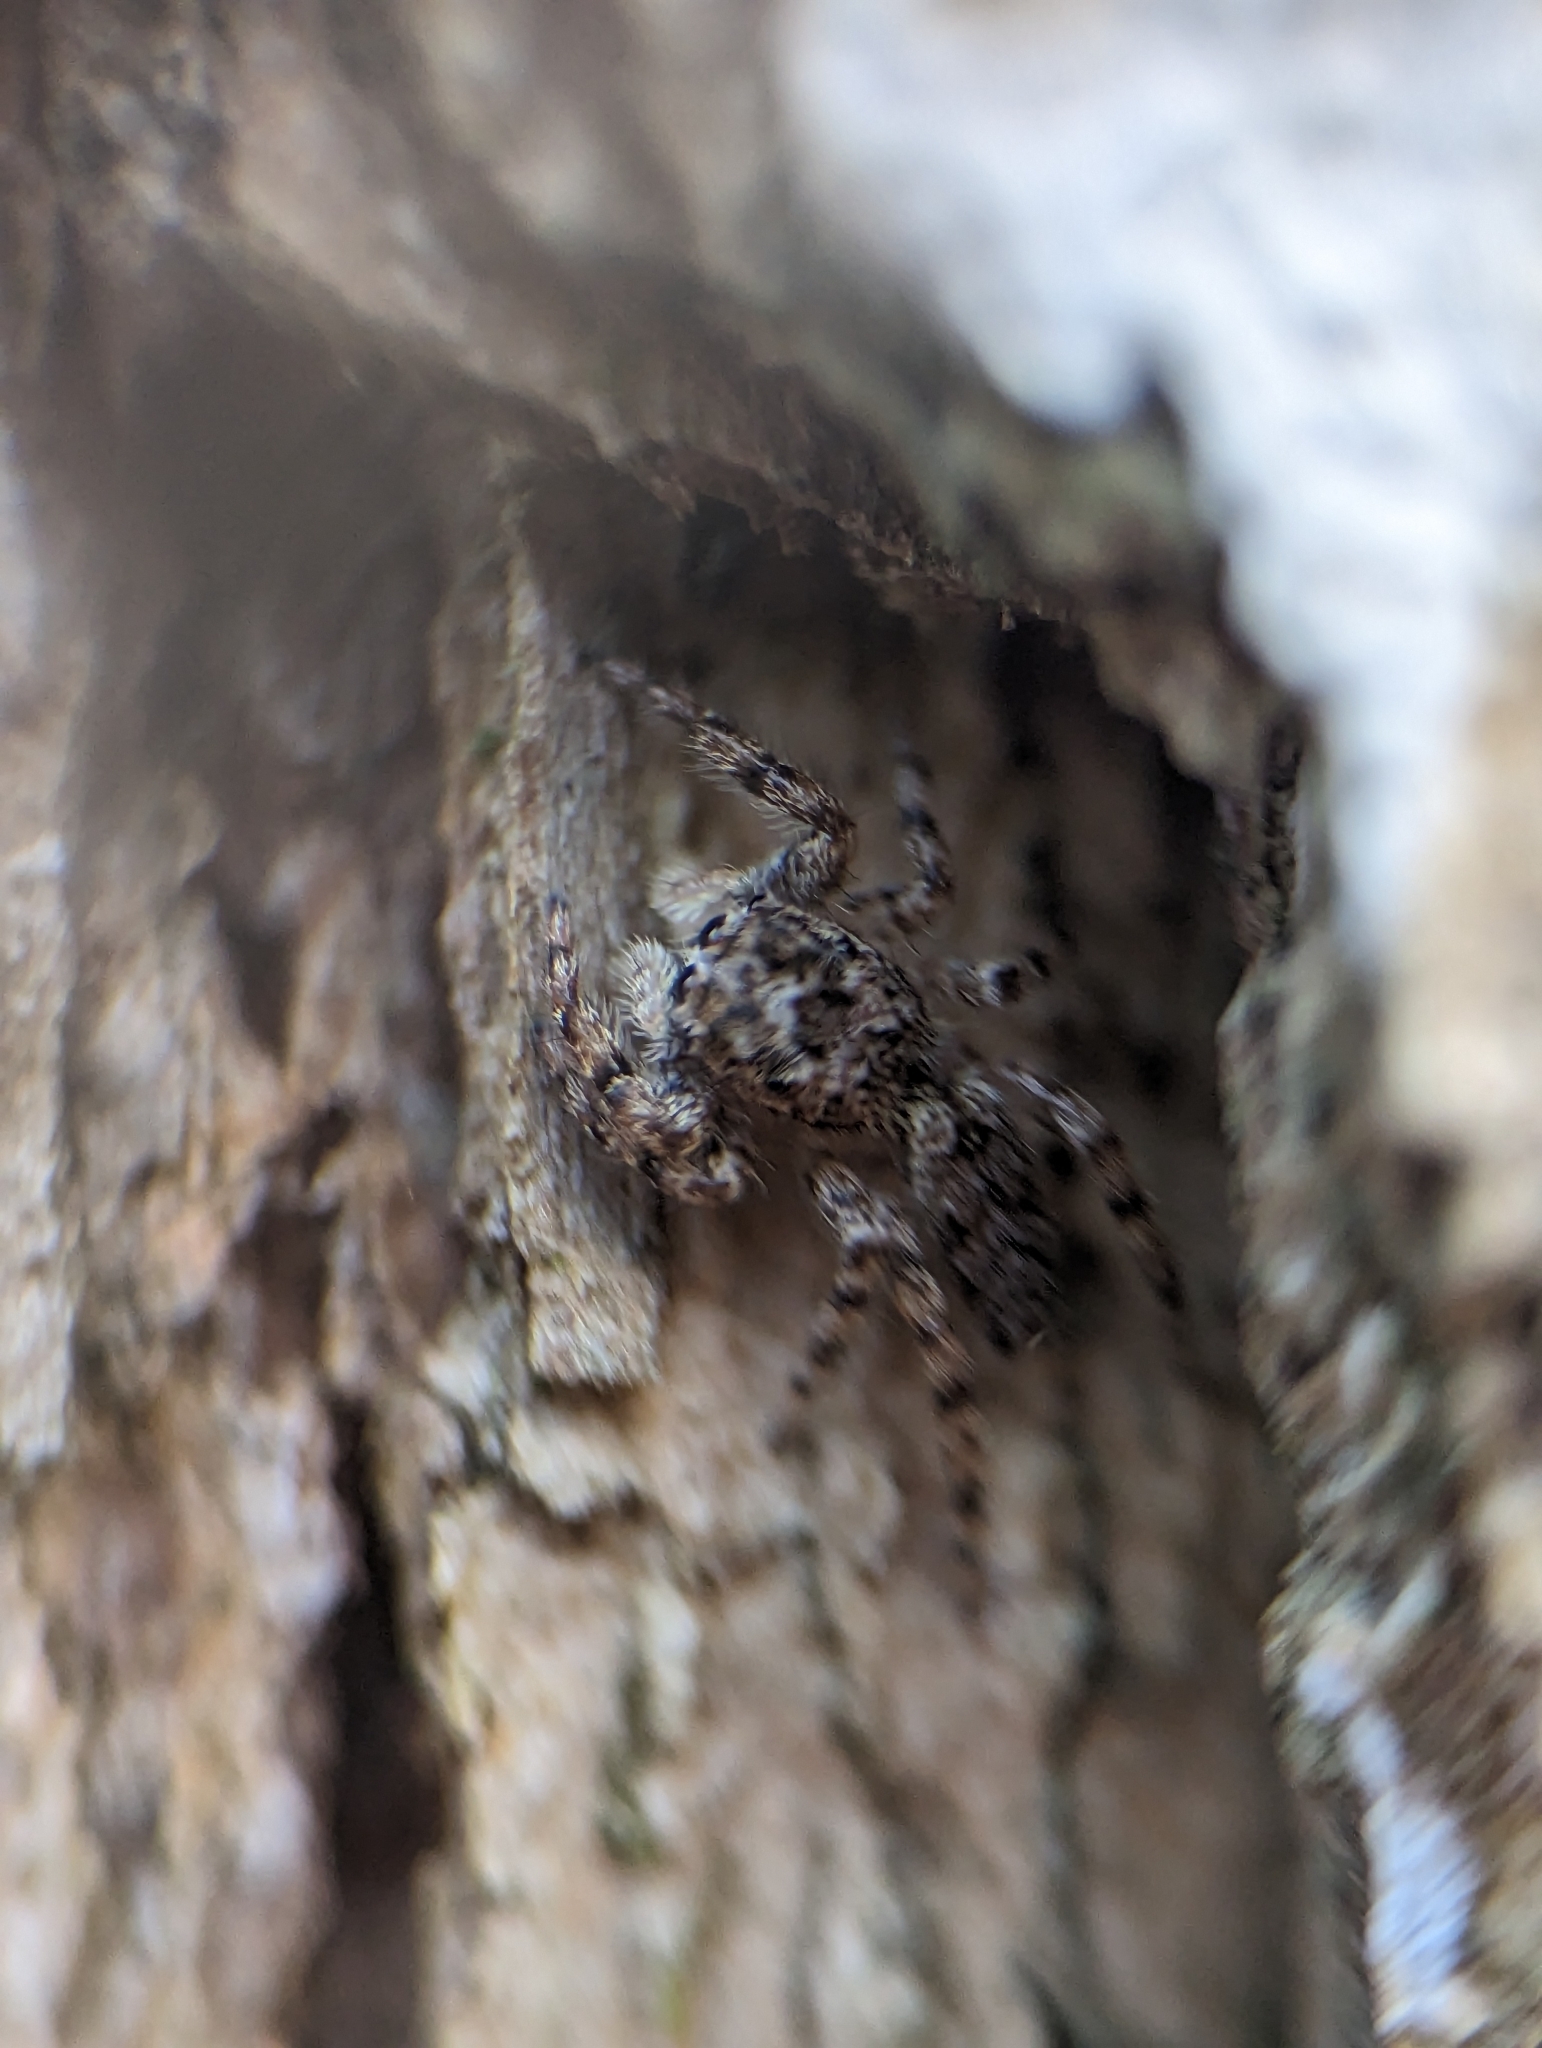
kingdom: Animalia
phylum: Arthropoda
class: Arachnida
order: Araneae
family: Salticidae
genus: Platycryptus
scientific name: Platycryptus undatus
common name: Tan jumping spider
